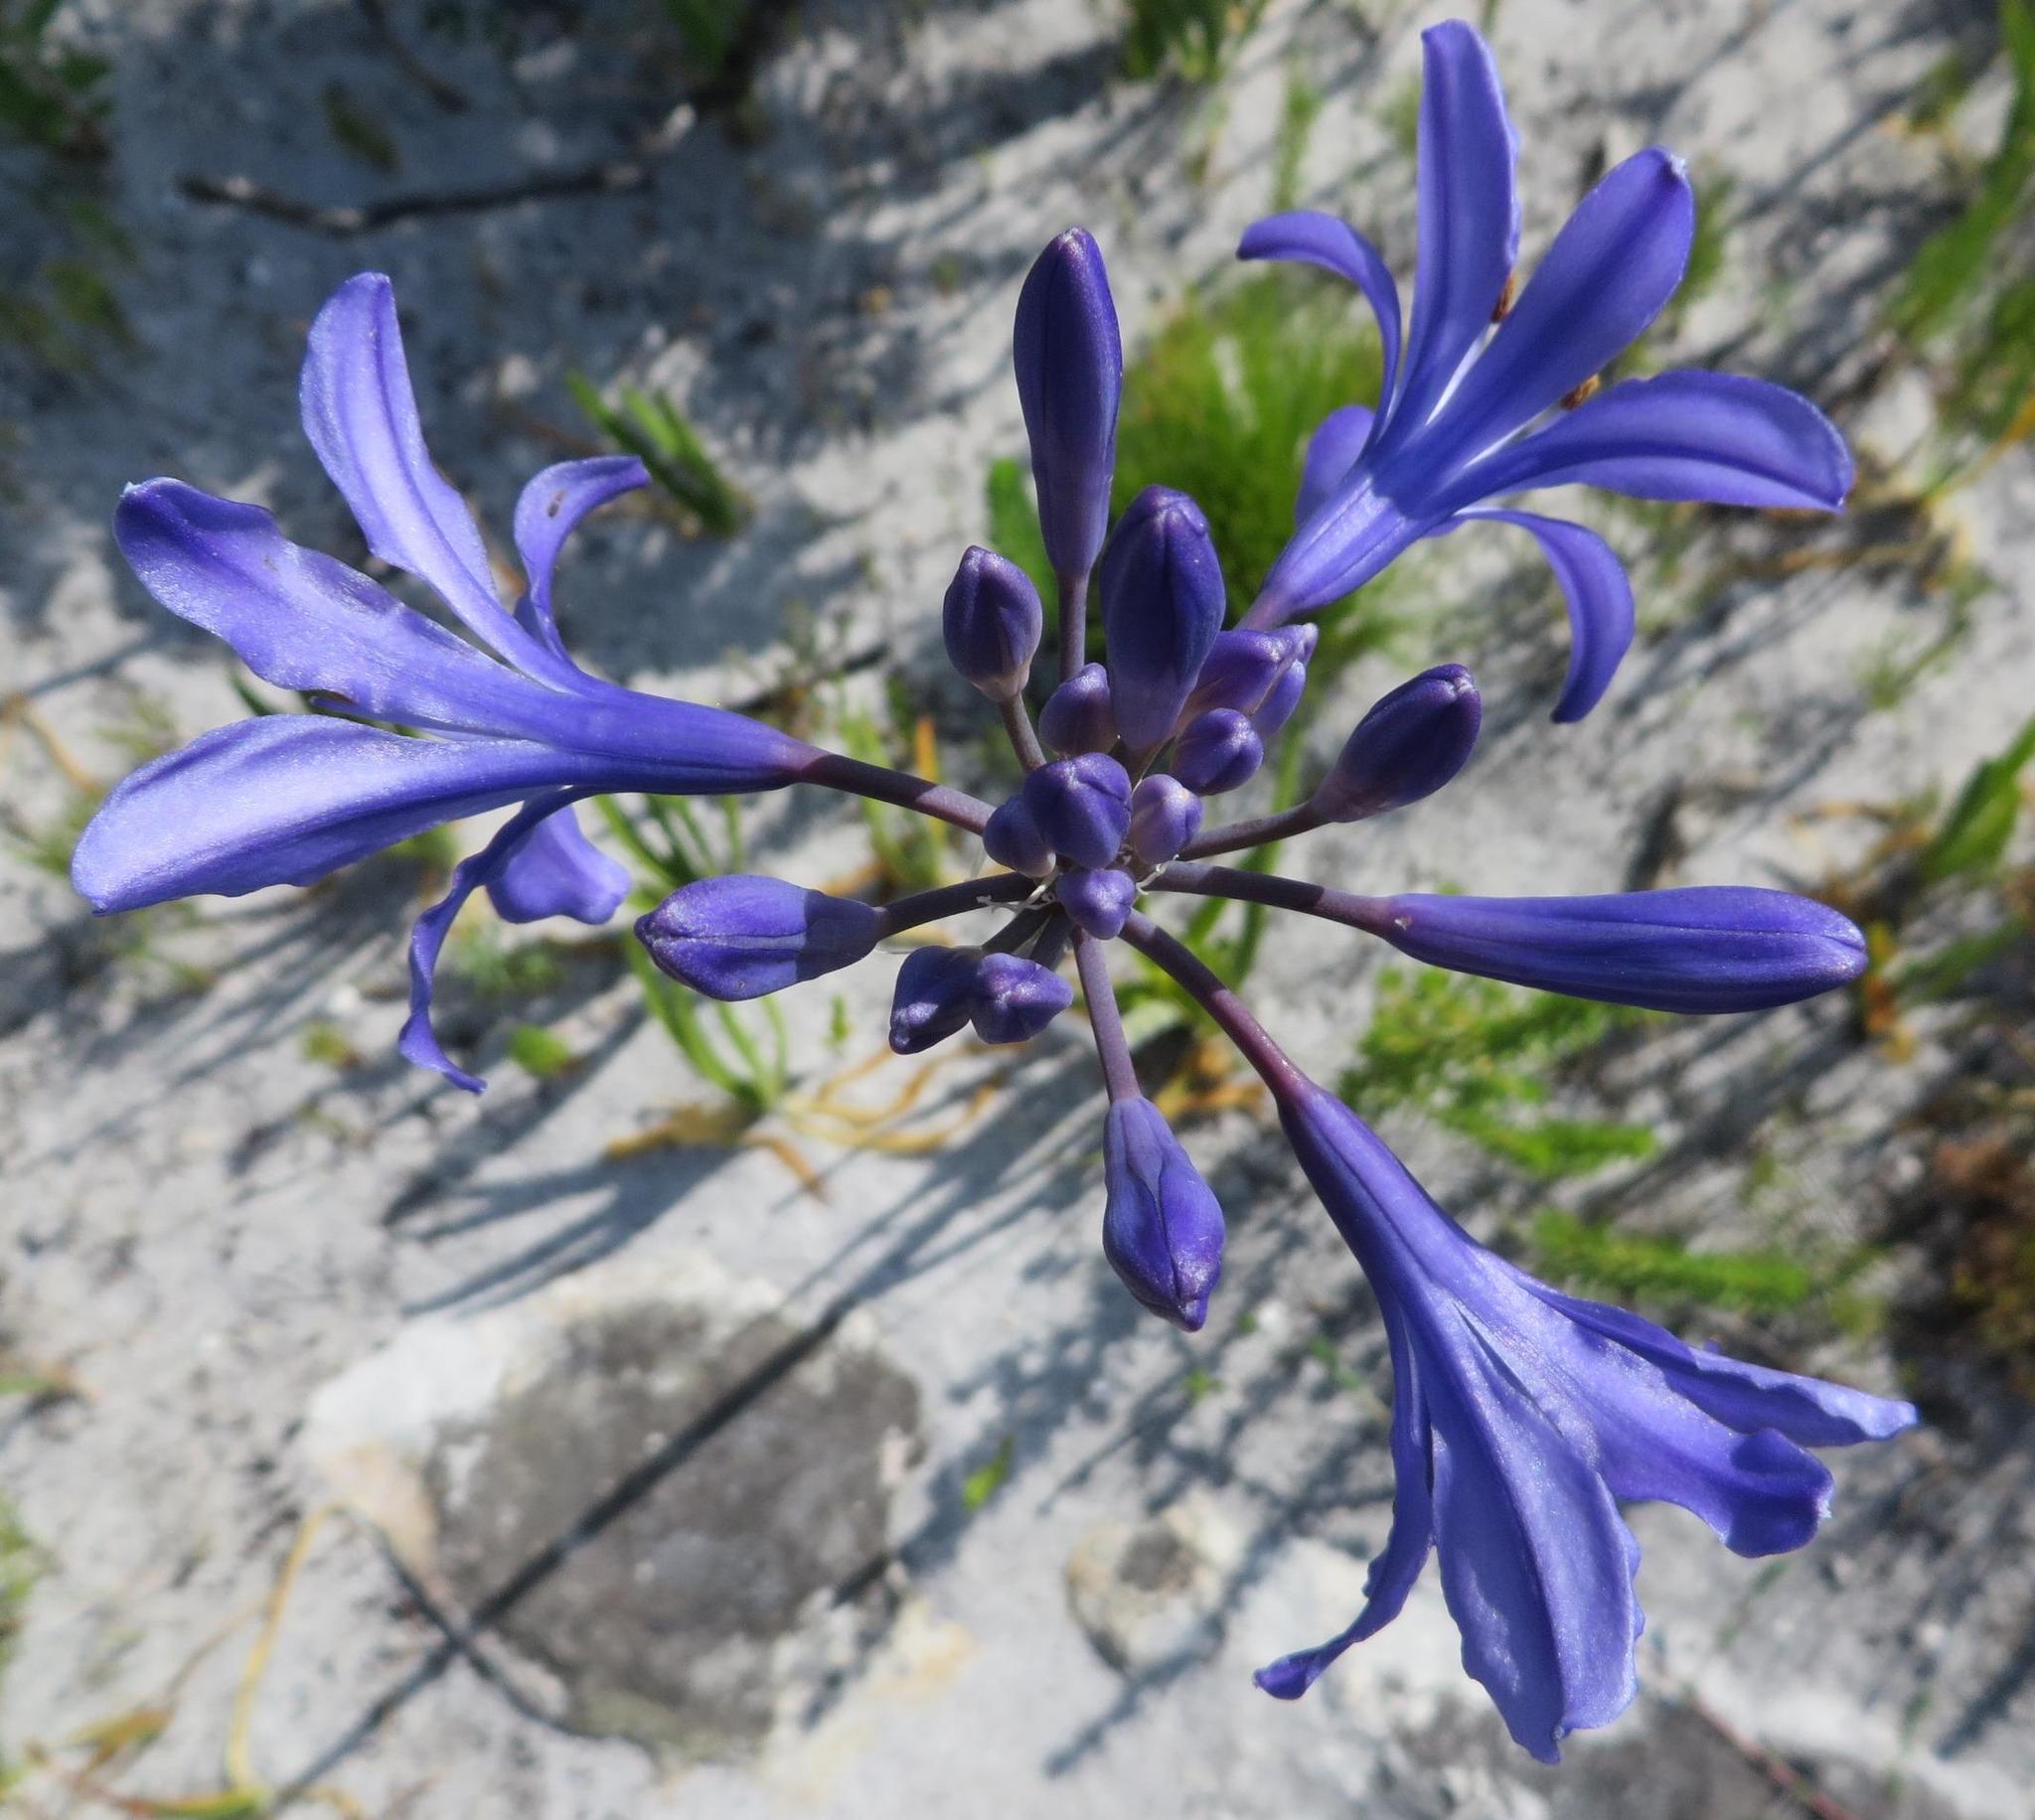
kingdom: Plantae
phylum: Tracheophyta
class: Liliopsida
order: Asparagales
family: Amaryllidaceae
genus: Agapanthus
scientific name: Agapanthus africanus
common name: Lily-of-the-nile
